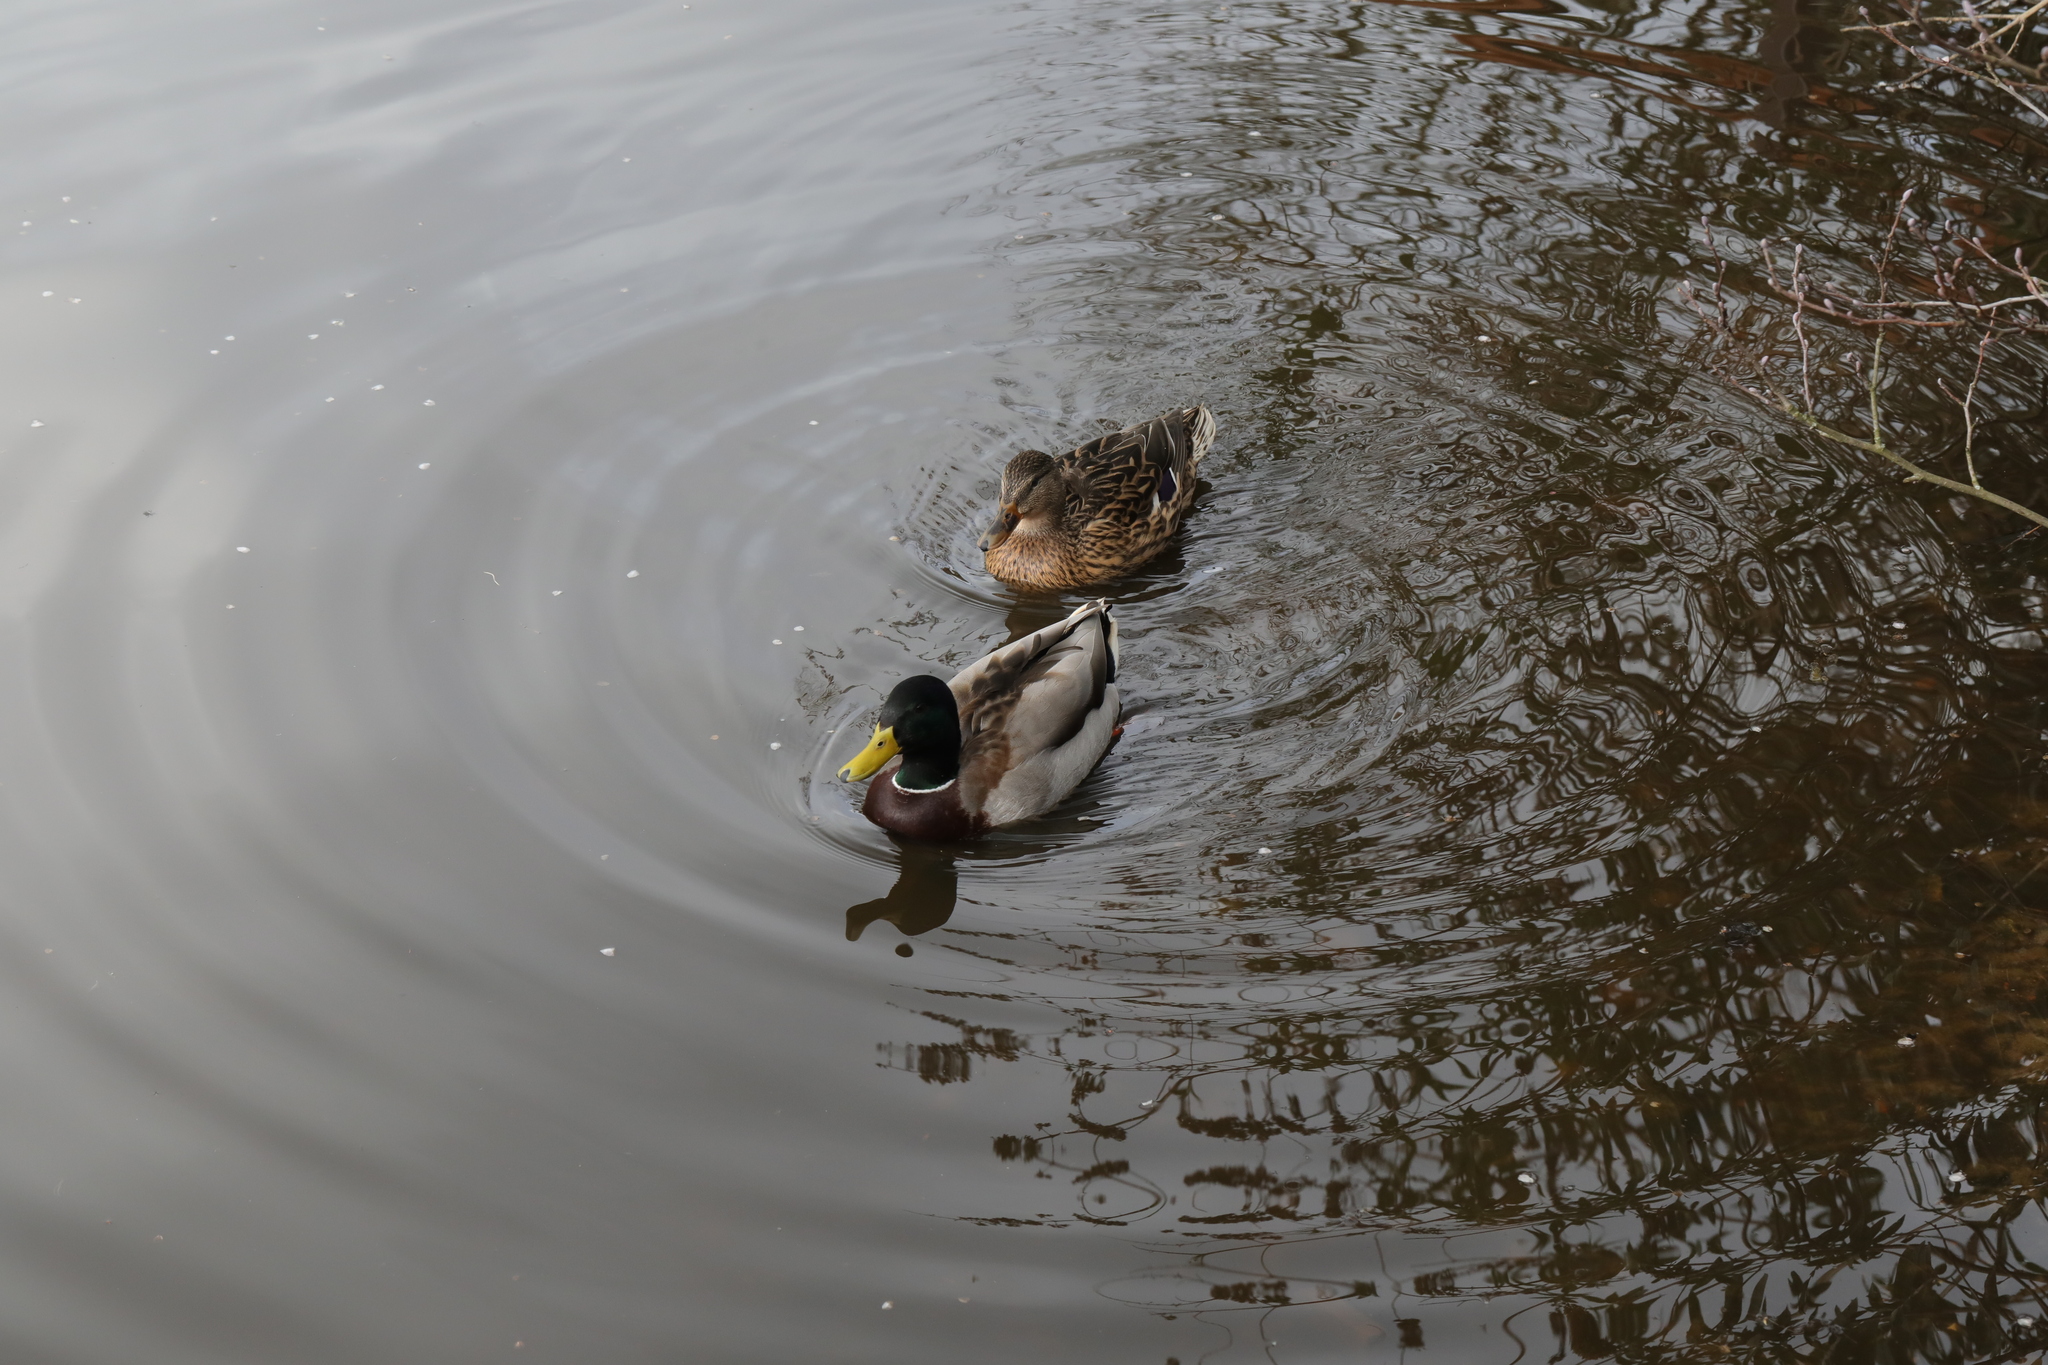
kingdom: Animalia
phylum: Chordata
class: Aves
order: Anseriformes
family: Anatidae
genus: Anas
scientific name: Anas platyrhynchos
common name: Mallard
